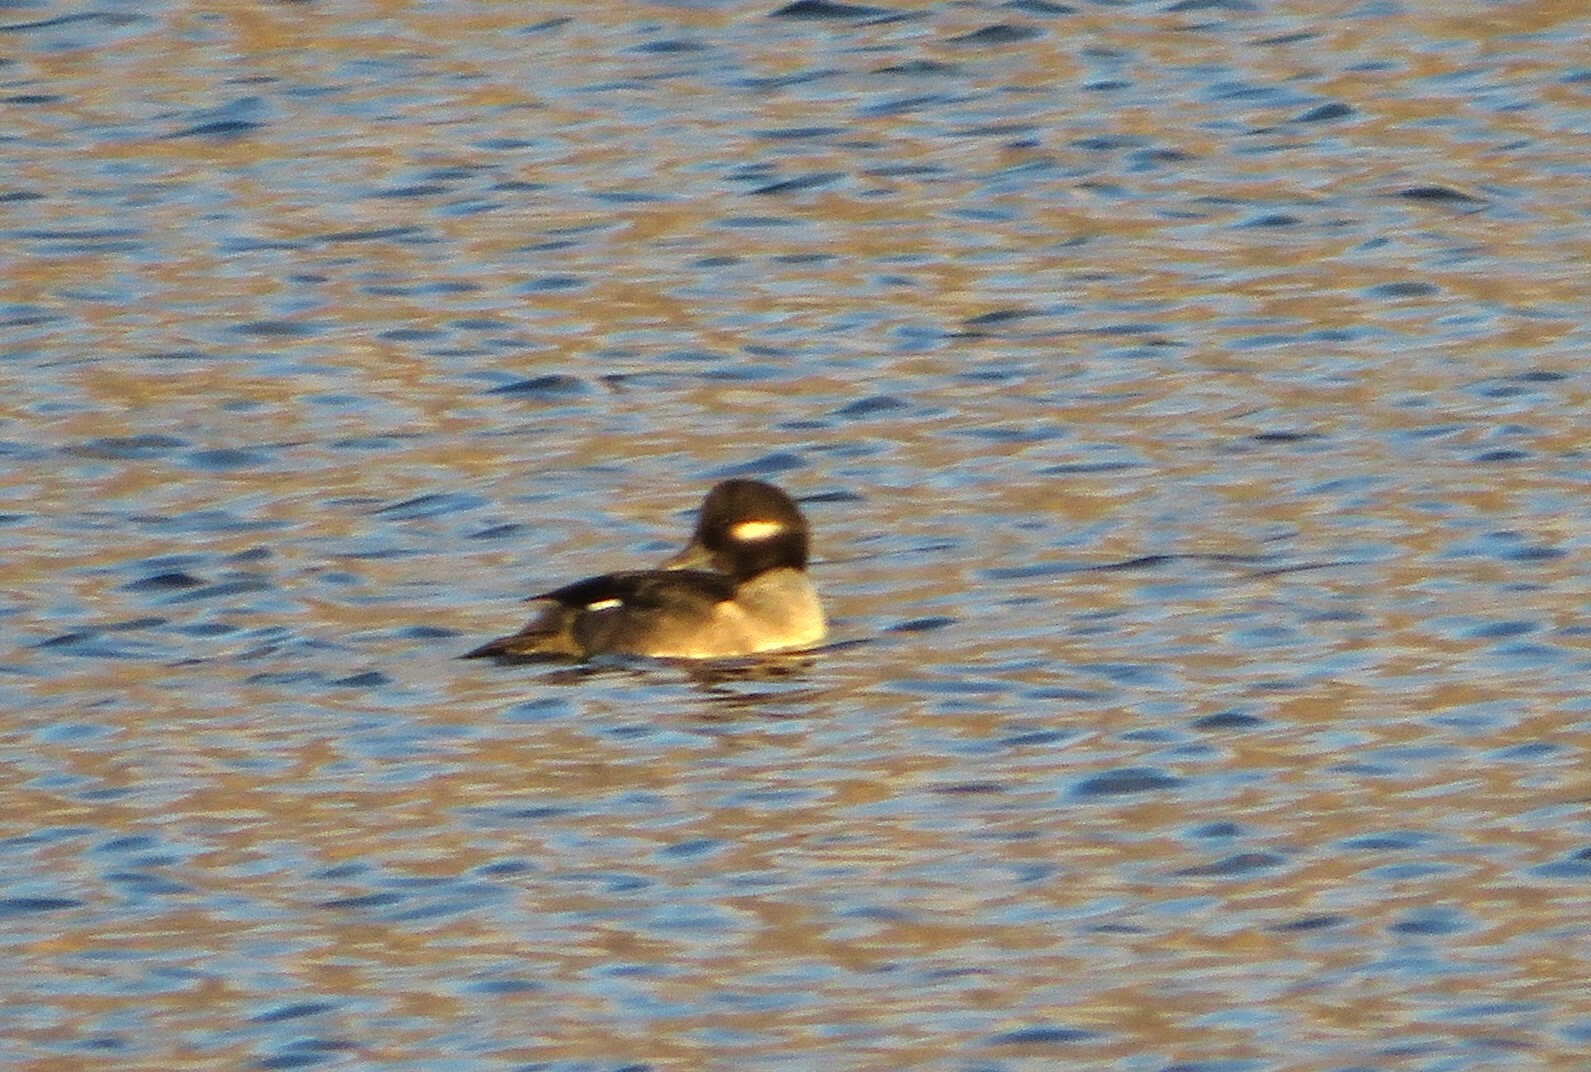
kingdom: Animalia
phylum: Chordata
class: Aves
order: Anseriformes
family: Anatidae
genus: Bucephala
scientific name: Bucephala albeola
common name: Bufflehead
